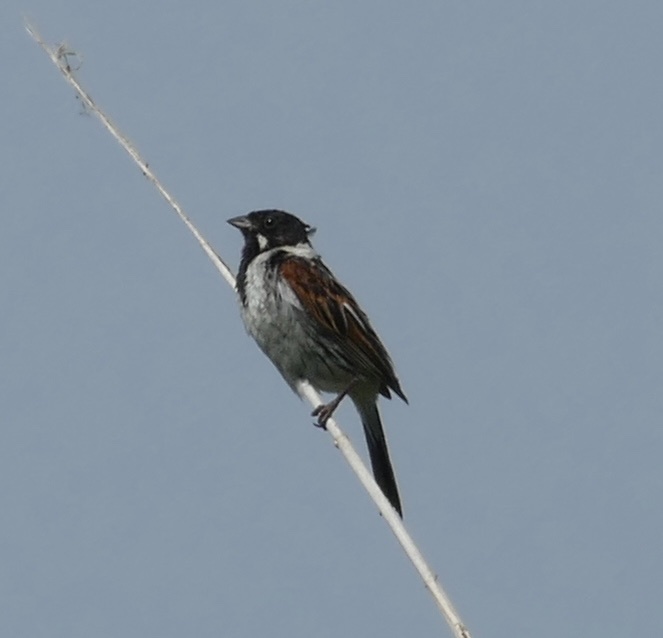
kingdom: Animalia
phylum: Chordata
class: Aves
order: Passeriformes
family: Emberizidae
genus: Emberiza
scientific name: Emberiza schoeniclus
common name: Reed bunting
